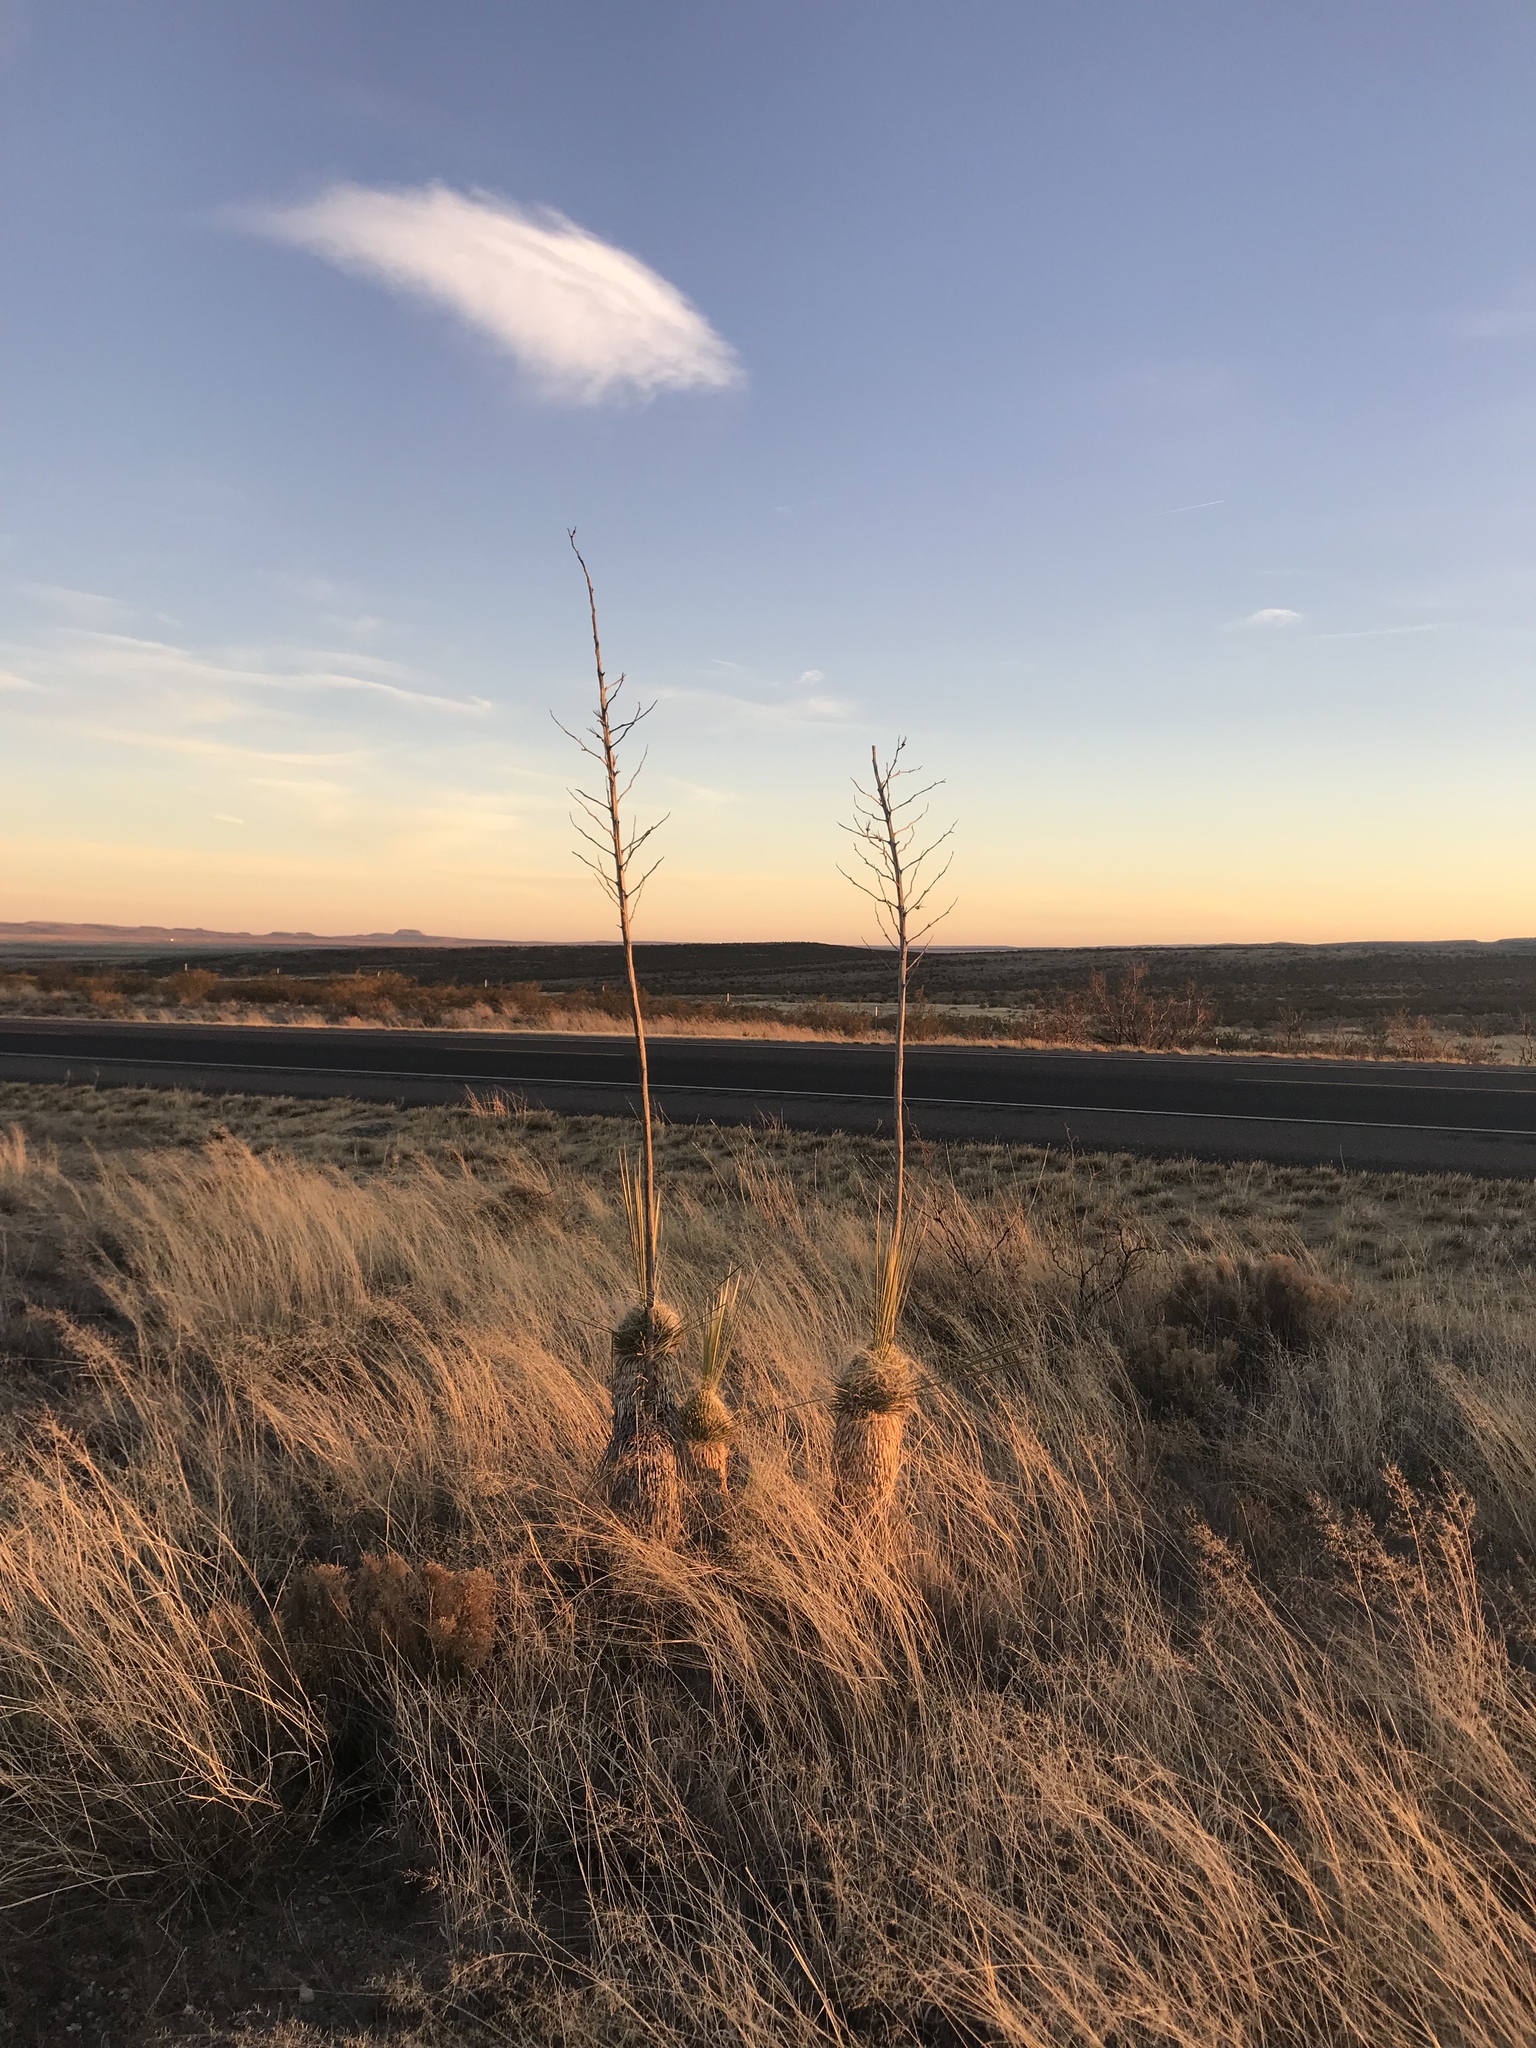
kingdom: Plantae
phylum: Tracheophyta
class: Liliopsida
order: Asparagales
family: Asparagaceae
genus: Yucca
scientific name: Yucca elata
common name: Palmella
